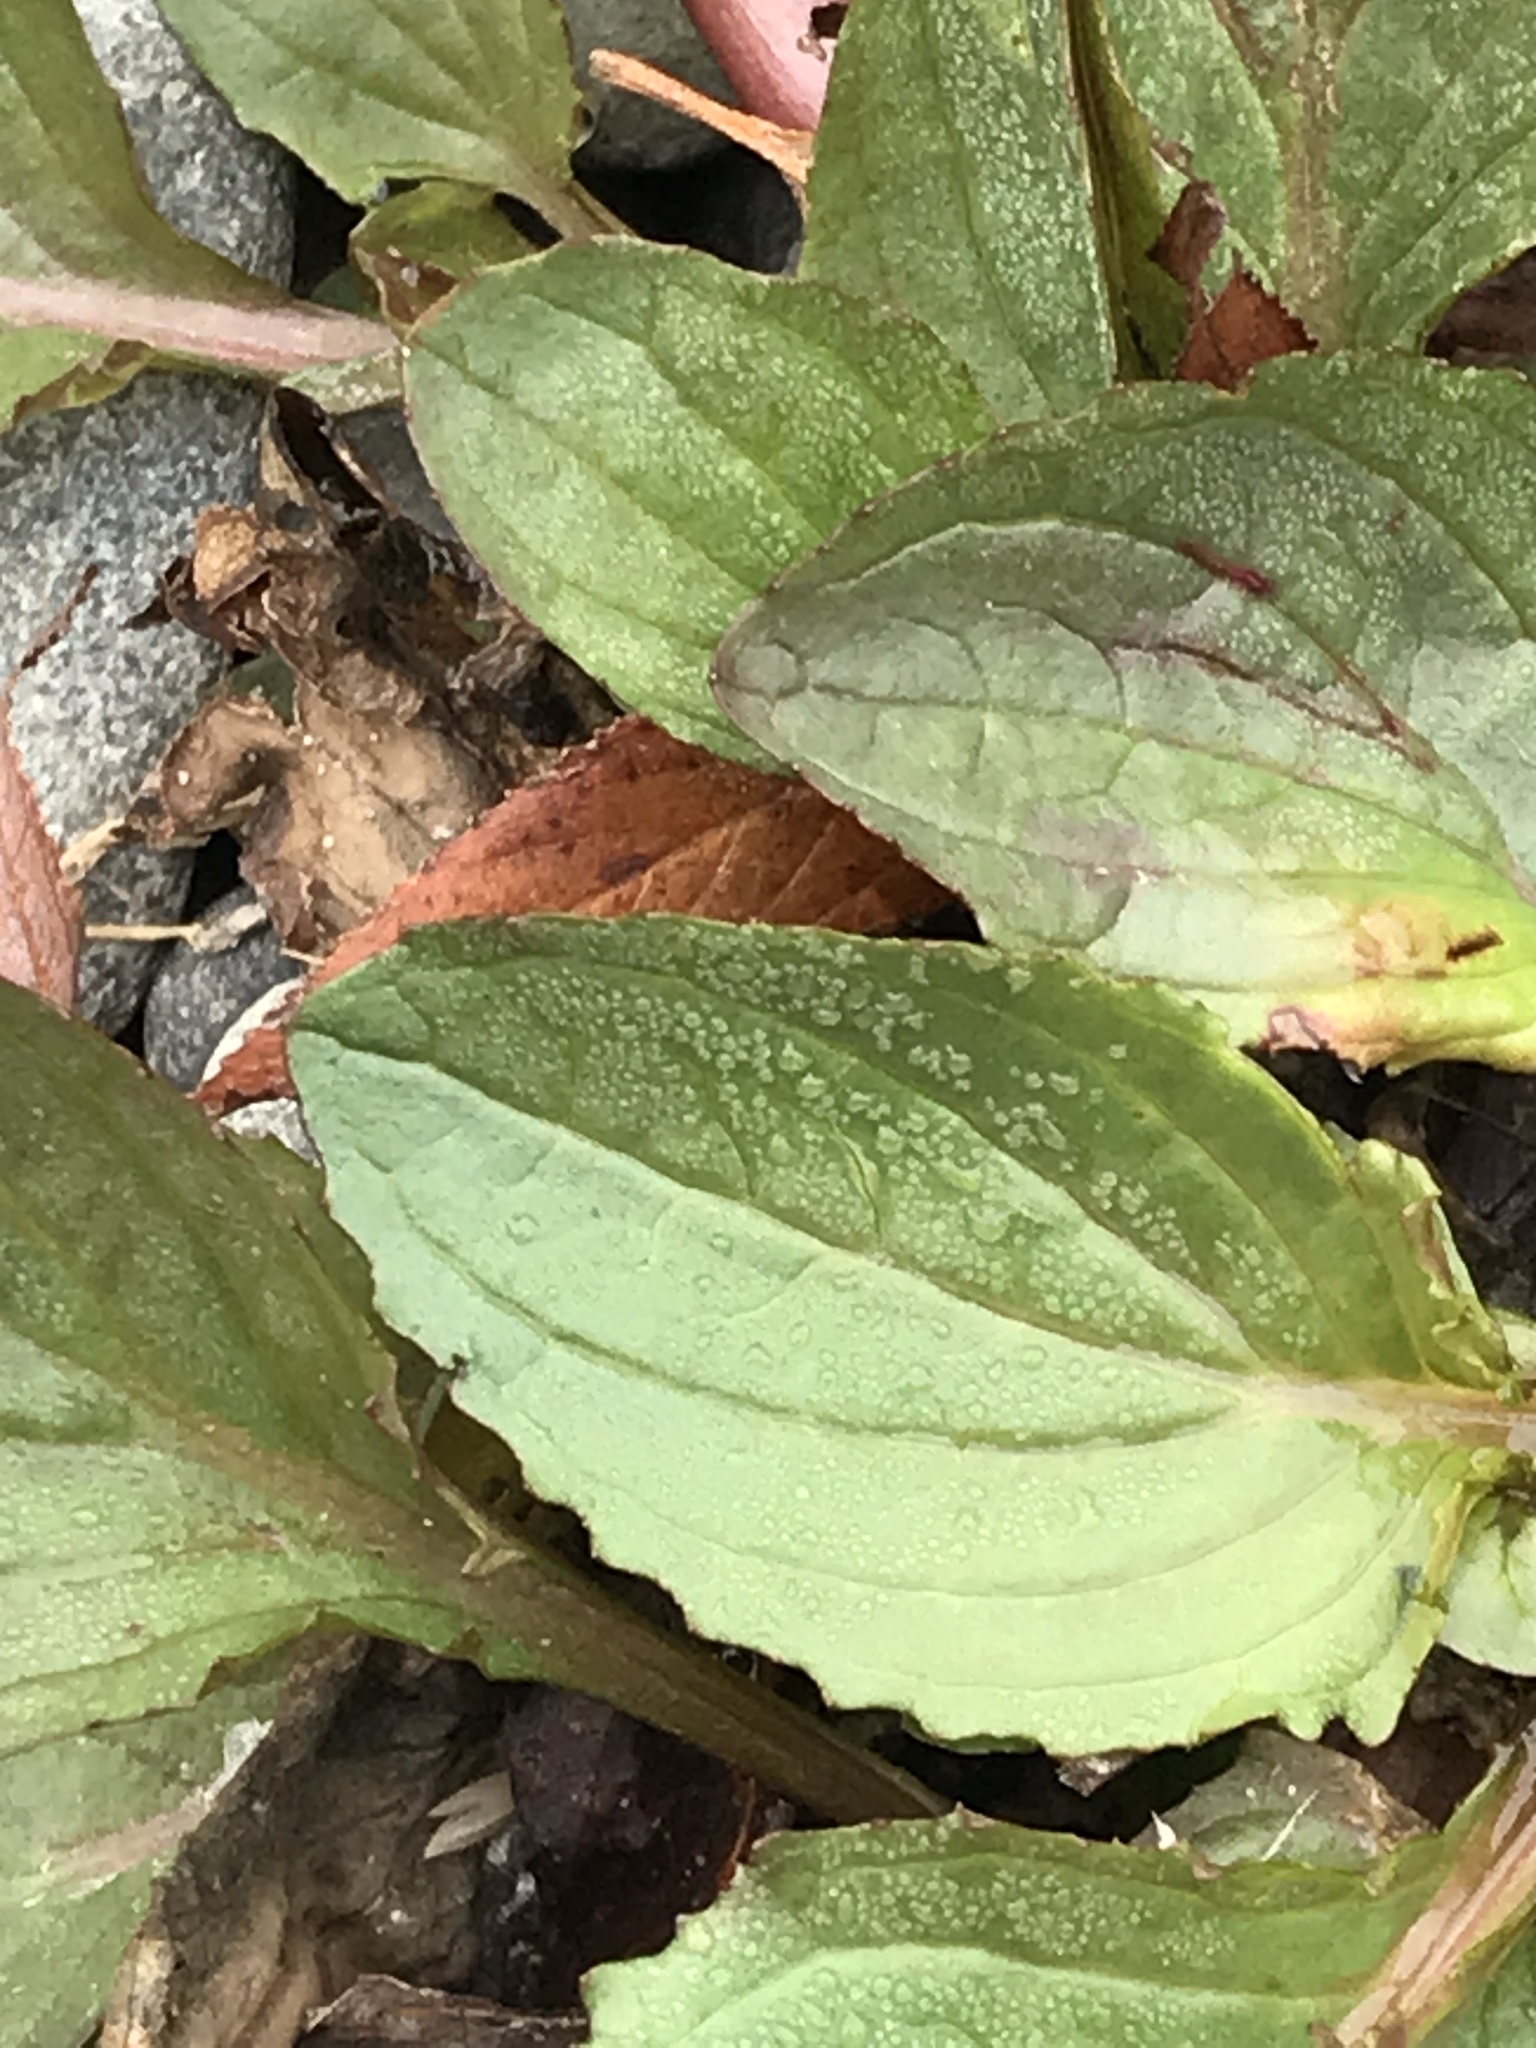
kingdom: Plantae
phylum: Tracheophyta
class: Magnoliopsida
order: Lamiales
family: Phrymaceae
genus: Erythranthe
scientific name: Erythranthe guttata
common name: Monkeyflower
